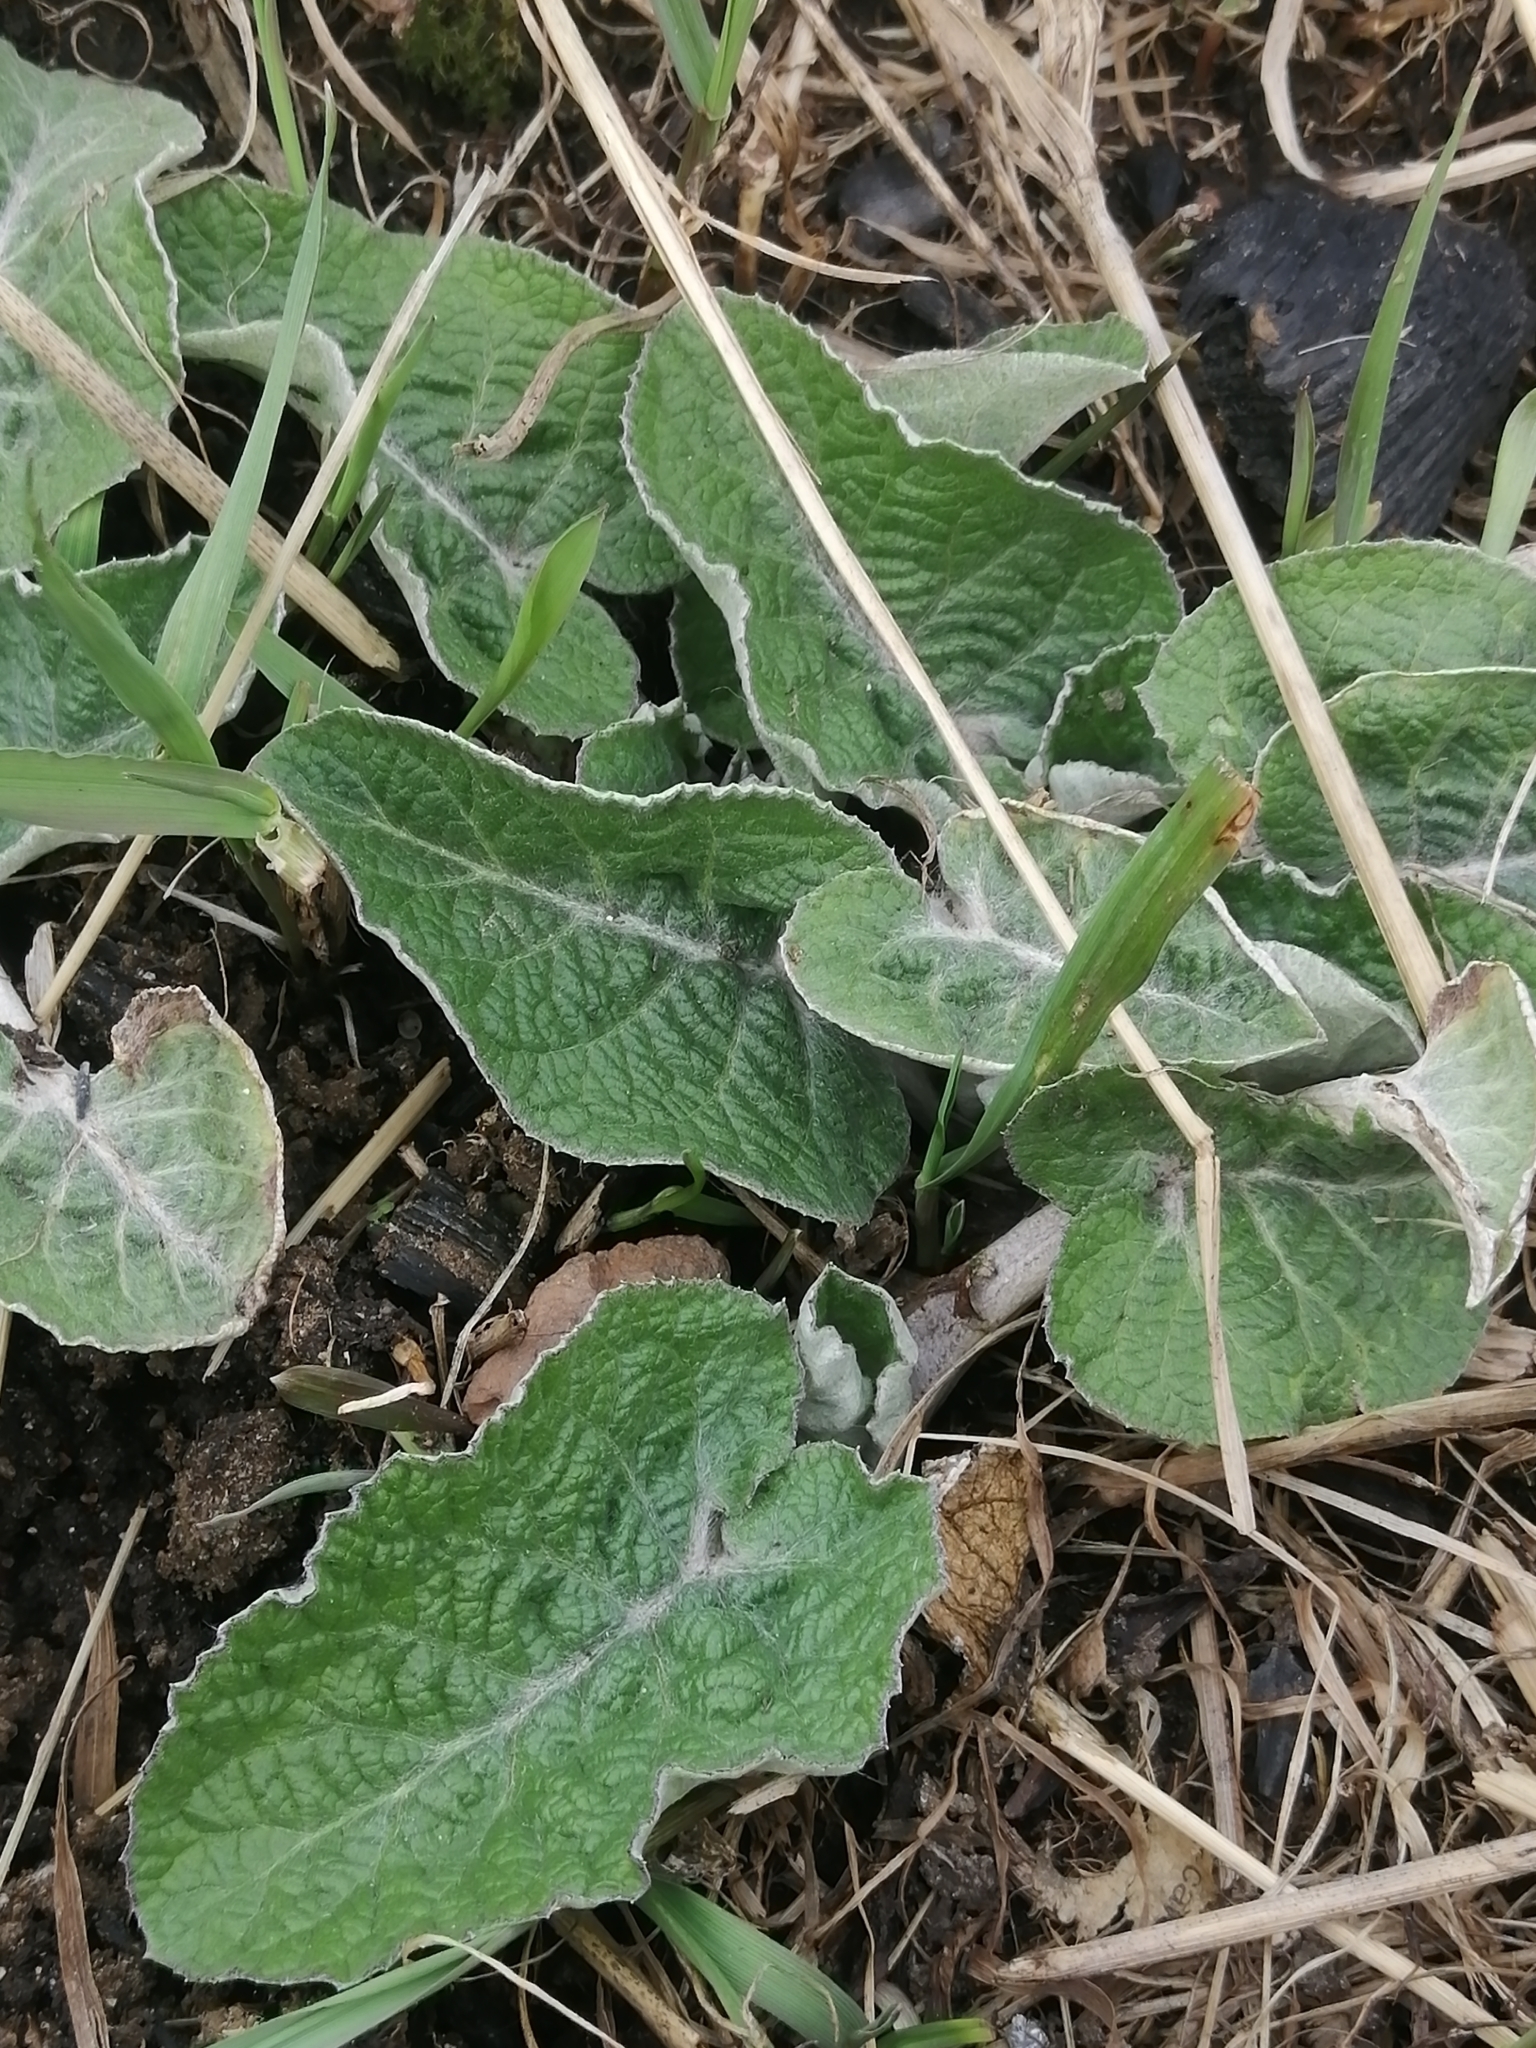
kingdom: Plantae
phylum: Tracheophyta
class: Magnoliopsida
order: Asterales
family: Asteraceae
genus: Arctium
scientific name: Arctium tomentosum
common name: Woolly burdock
